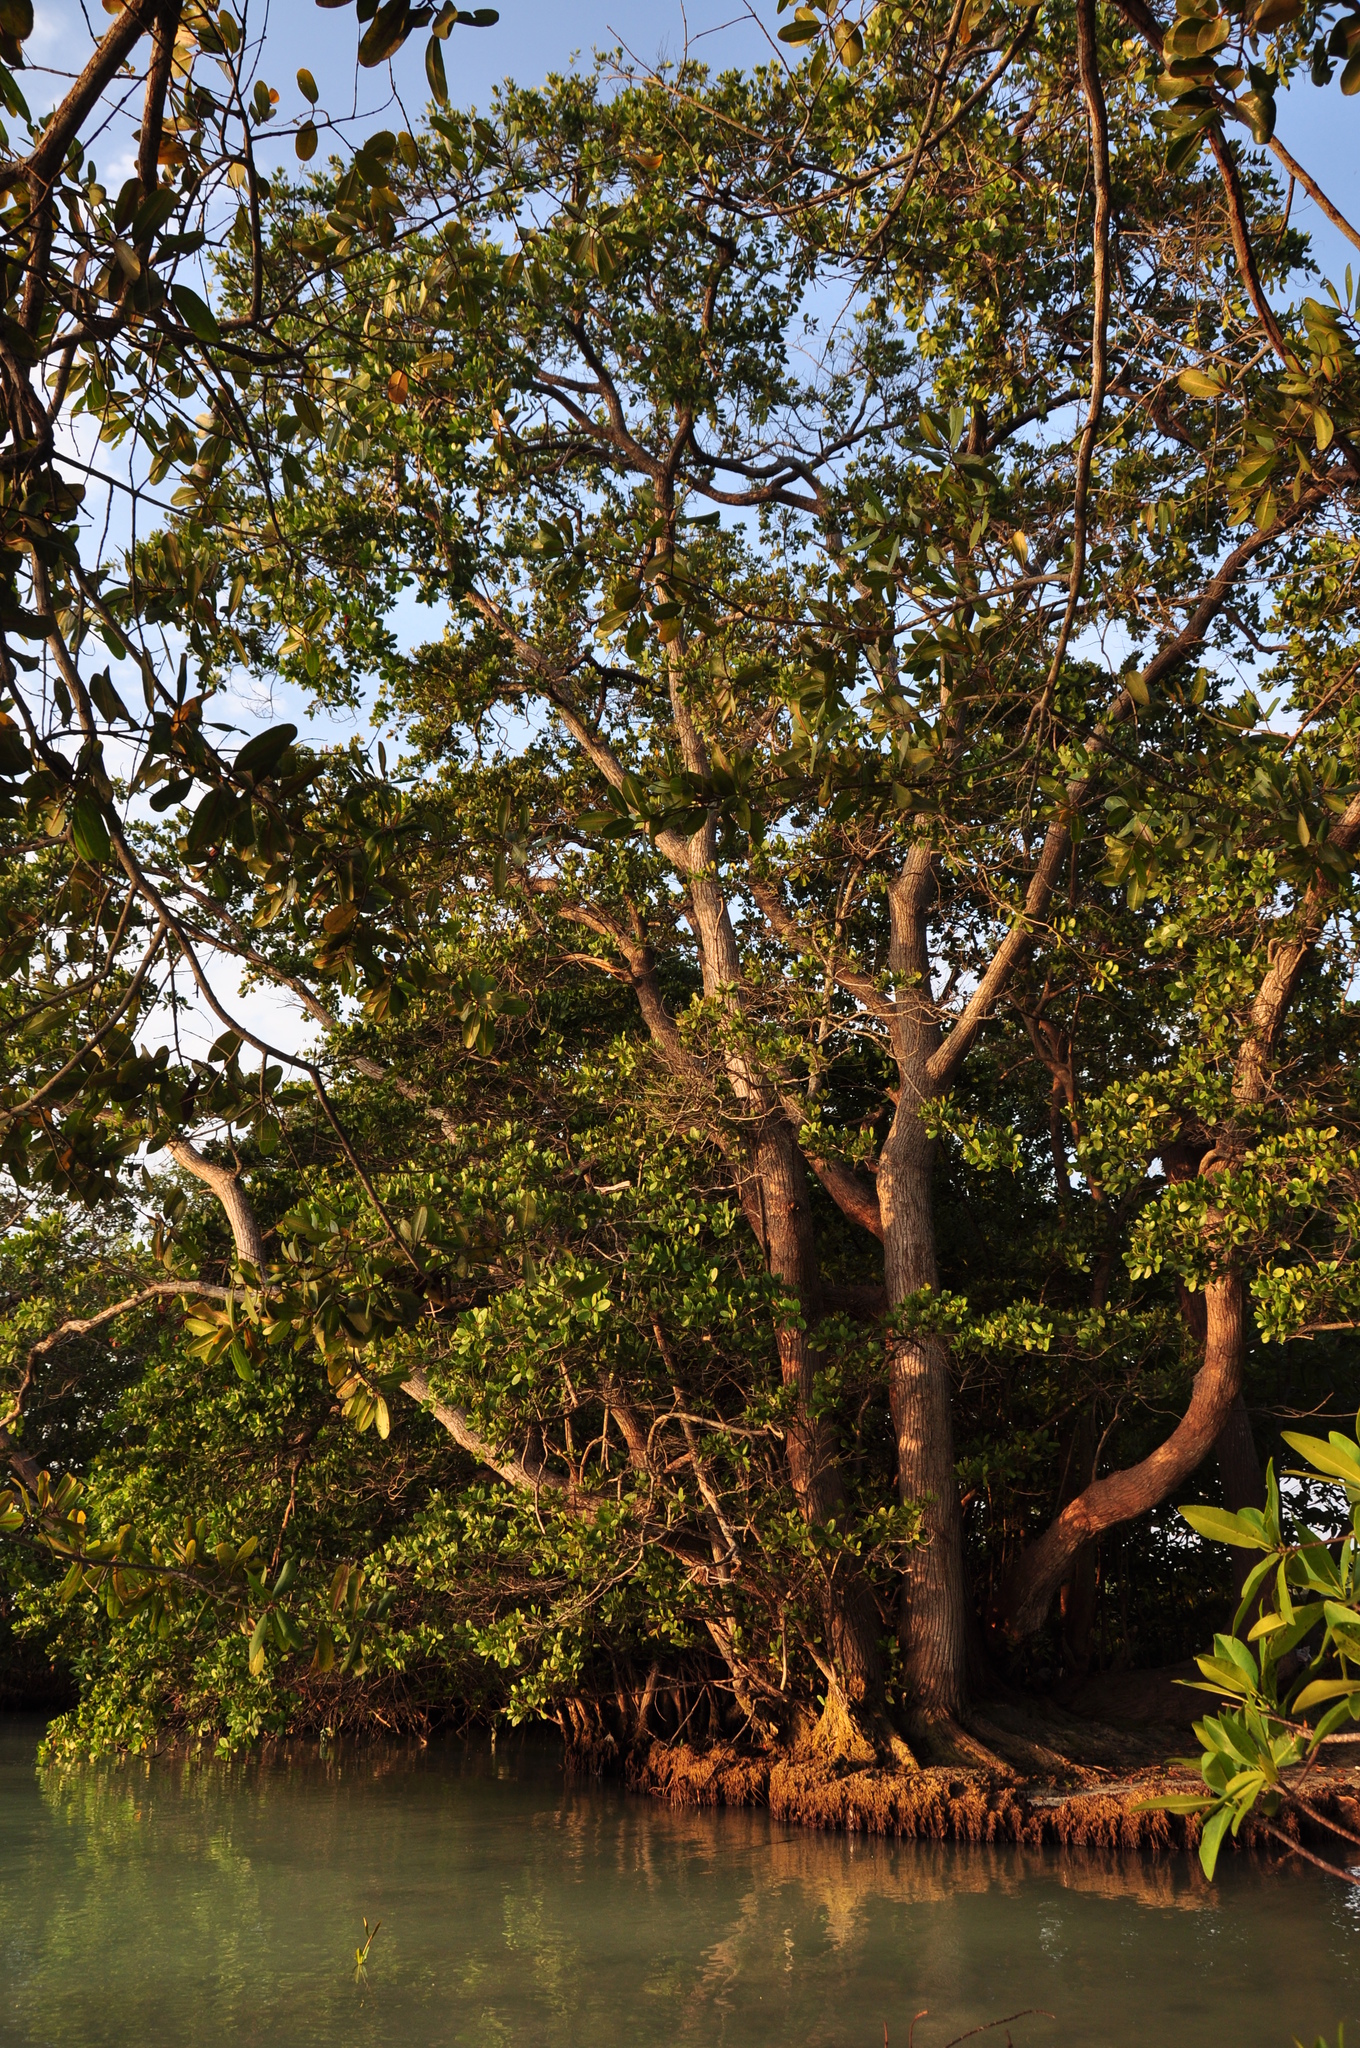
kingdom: Plantae
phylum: Tracheophyta
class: Magnoliopsida
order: Myrtales
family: Combretaceae
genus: Conocarpus
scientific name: Conocarpus erectus
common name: Button mangrove
